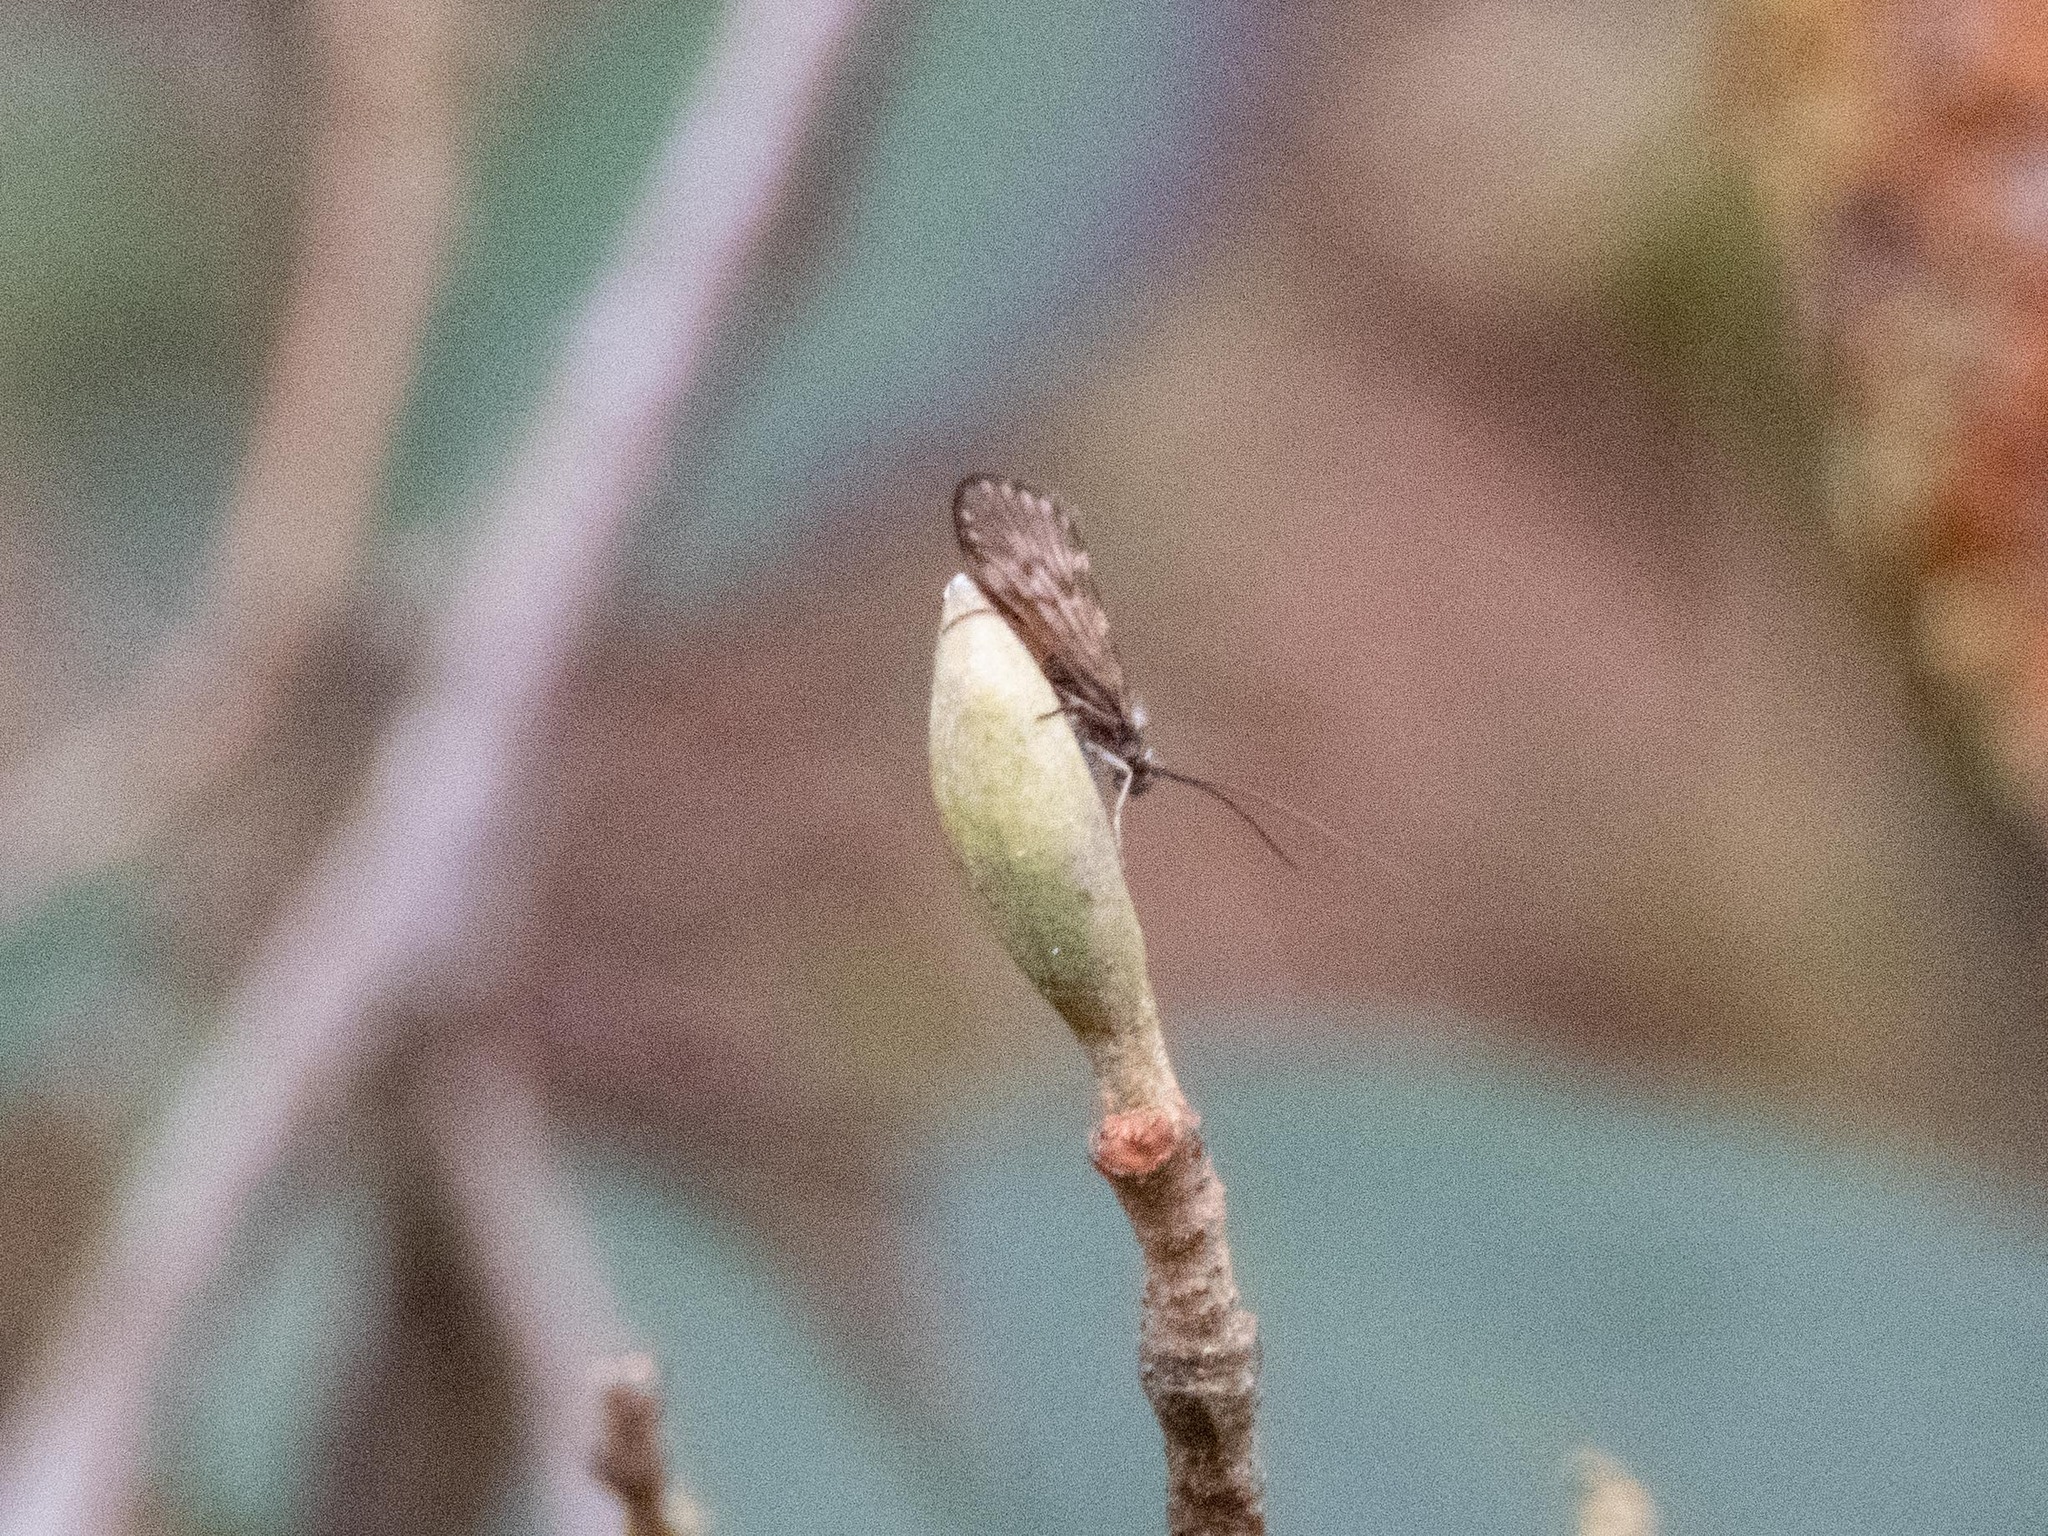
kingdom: Animalia
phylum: Arthropoda
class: Insecta
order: Trichoptera
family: Brachycentridae
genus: Brachycentrus
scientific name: Brachycentrus subnubilis
